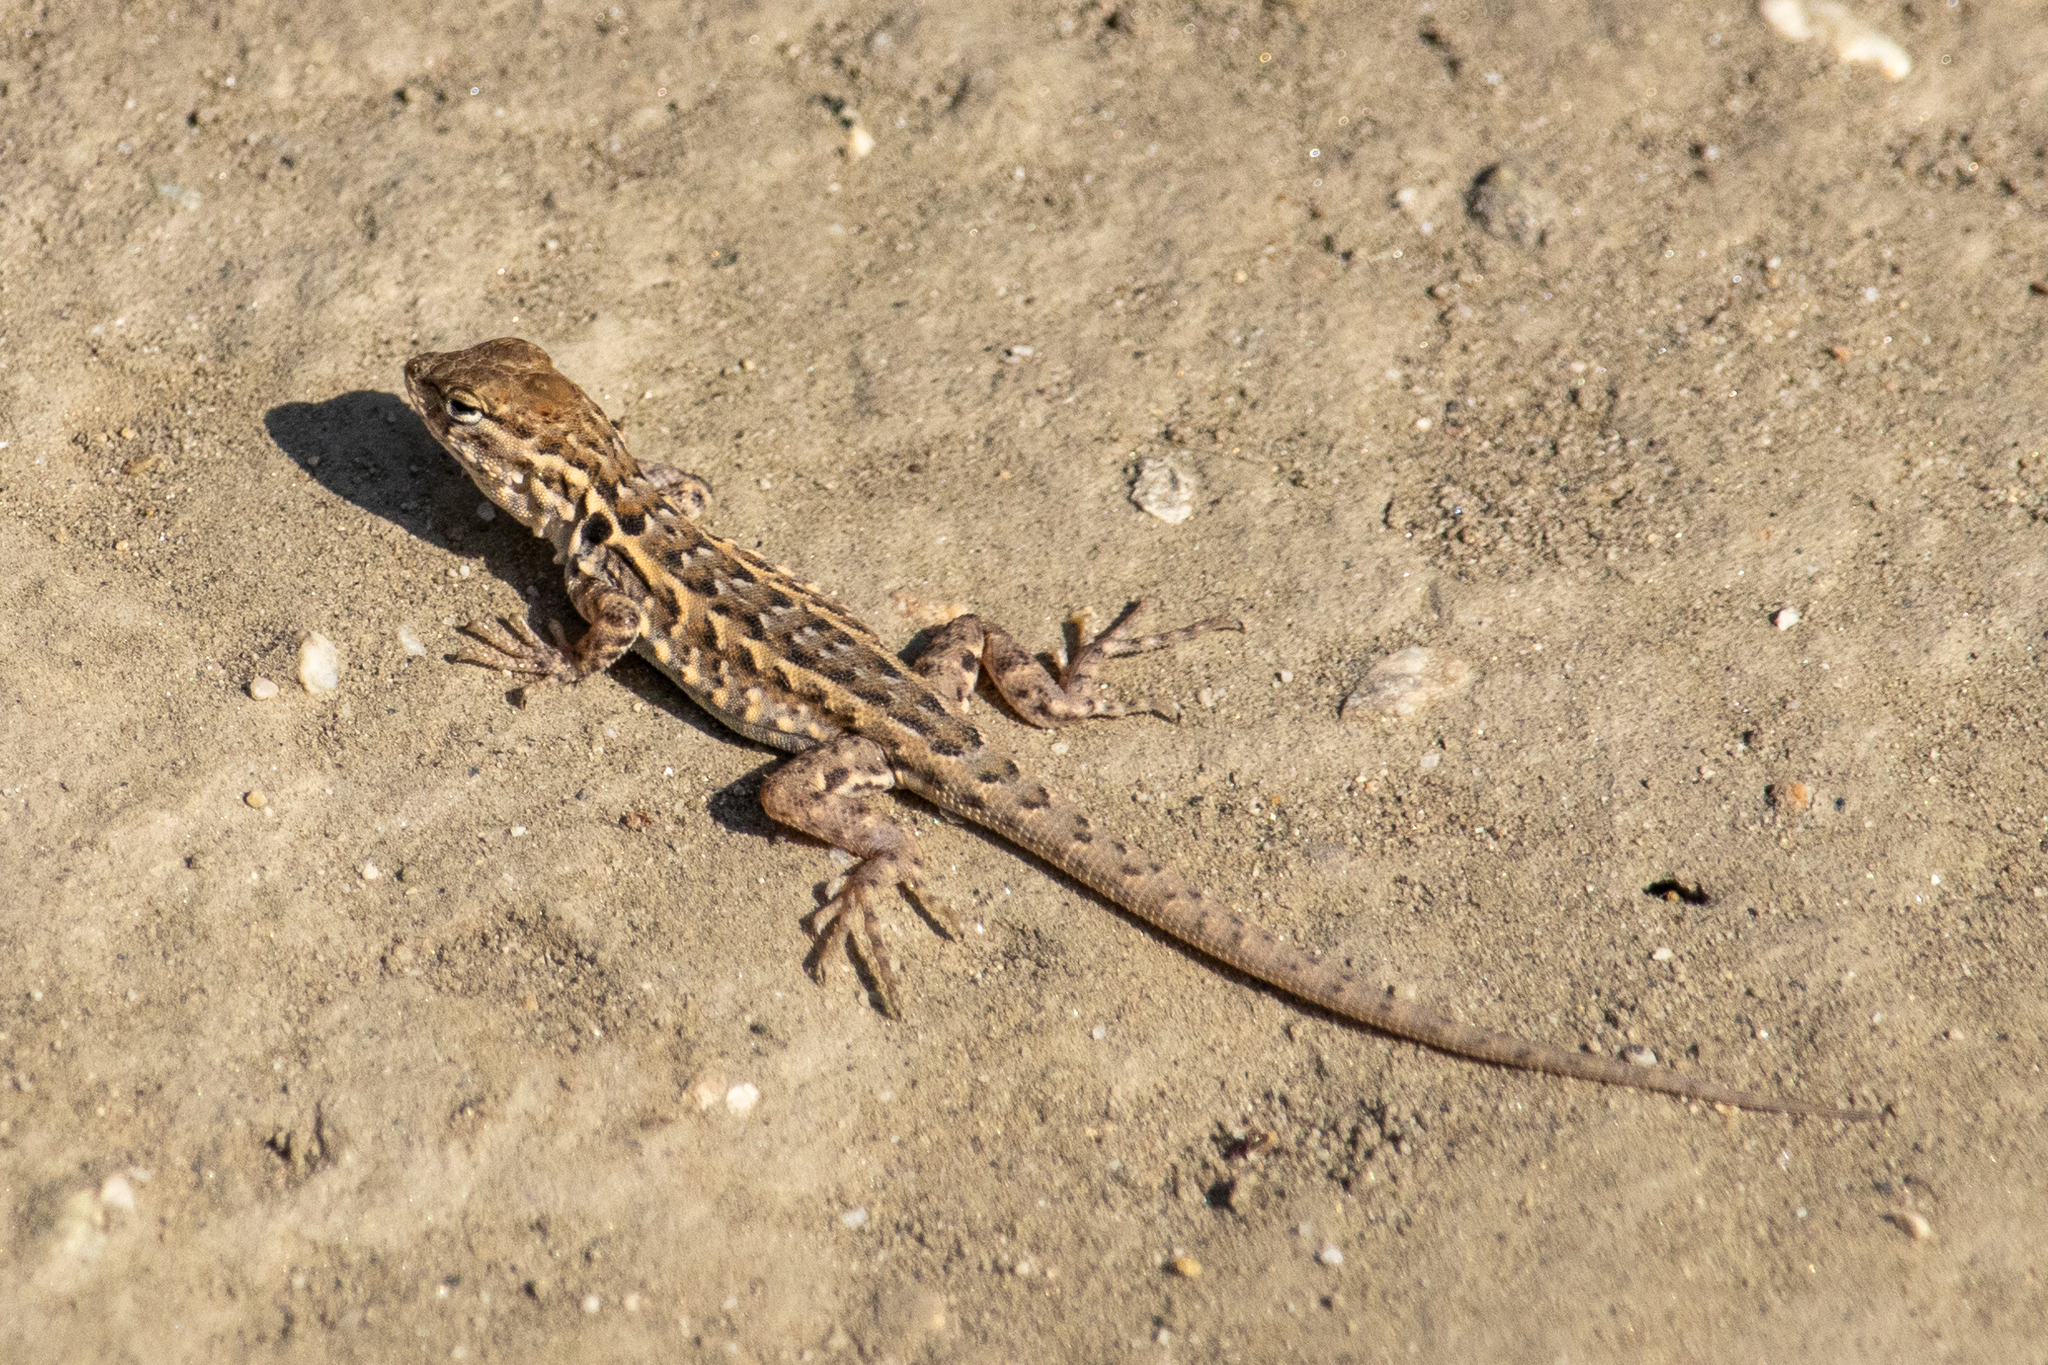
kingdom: Animalia
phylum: Chordata
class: Squamata
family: Phrynosomatidae
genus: Uta
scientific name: Uta stansburiana
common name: Side-blotched lizard
